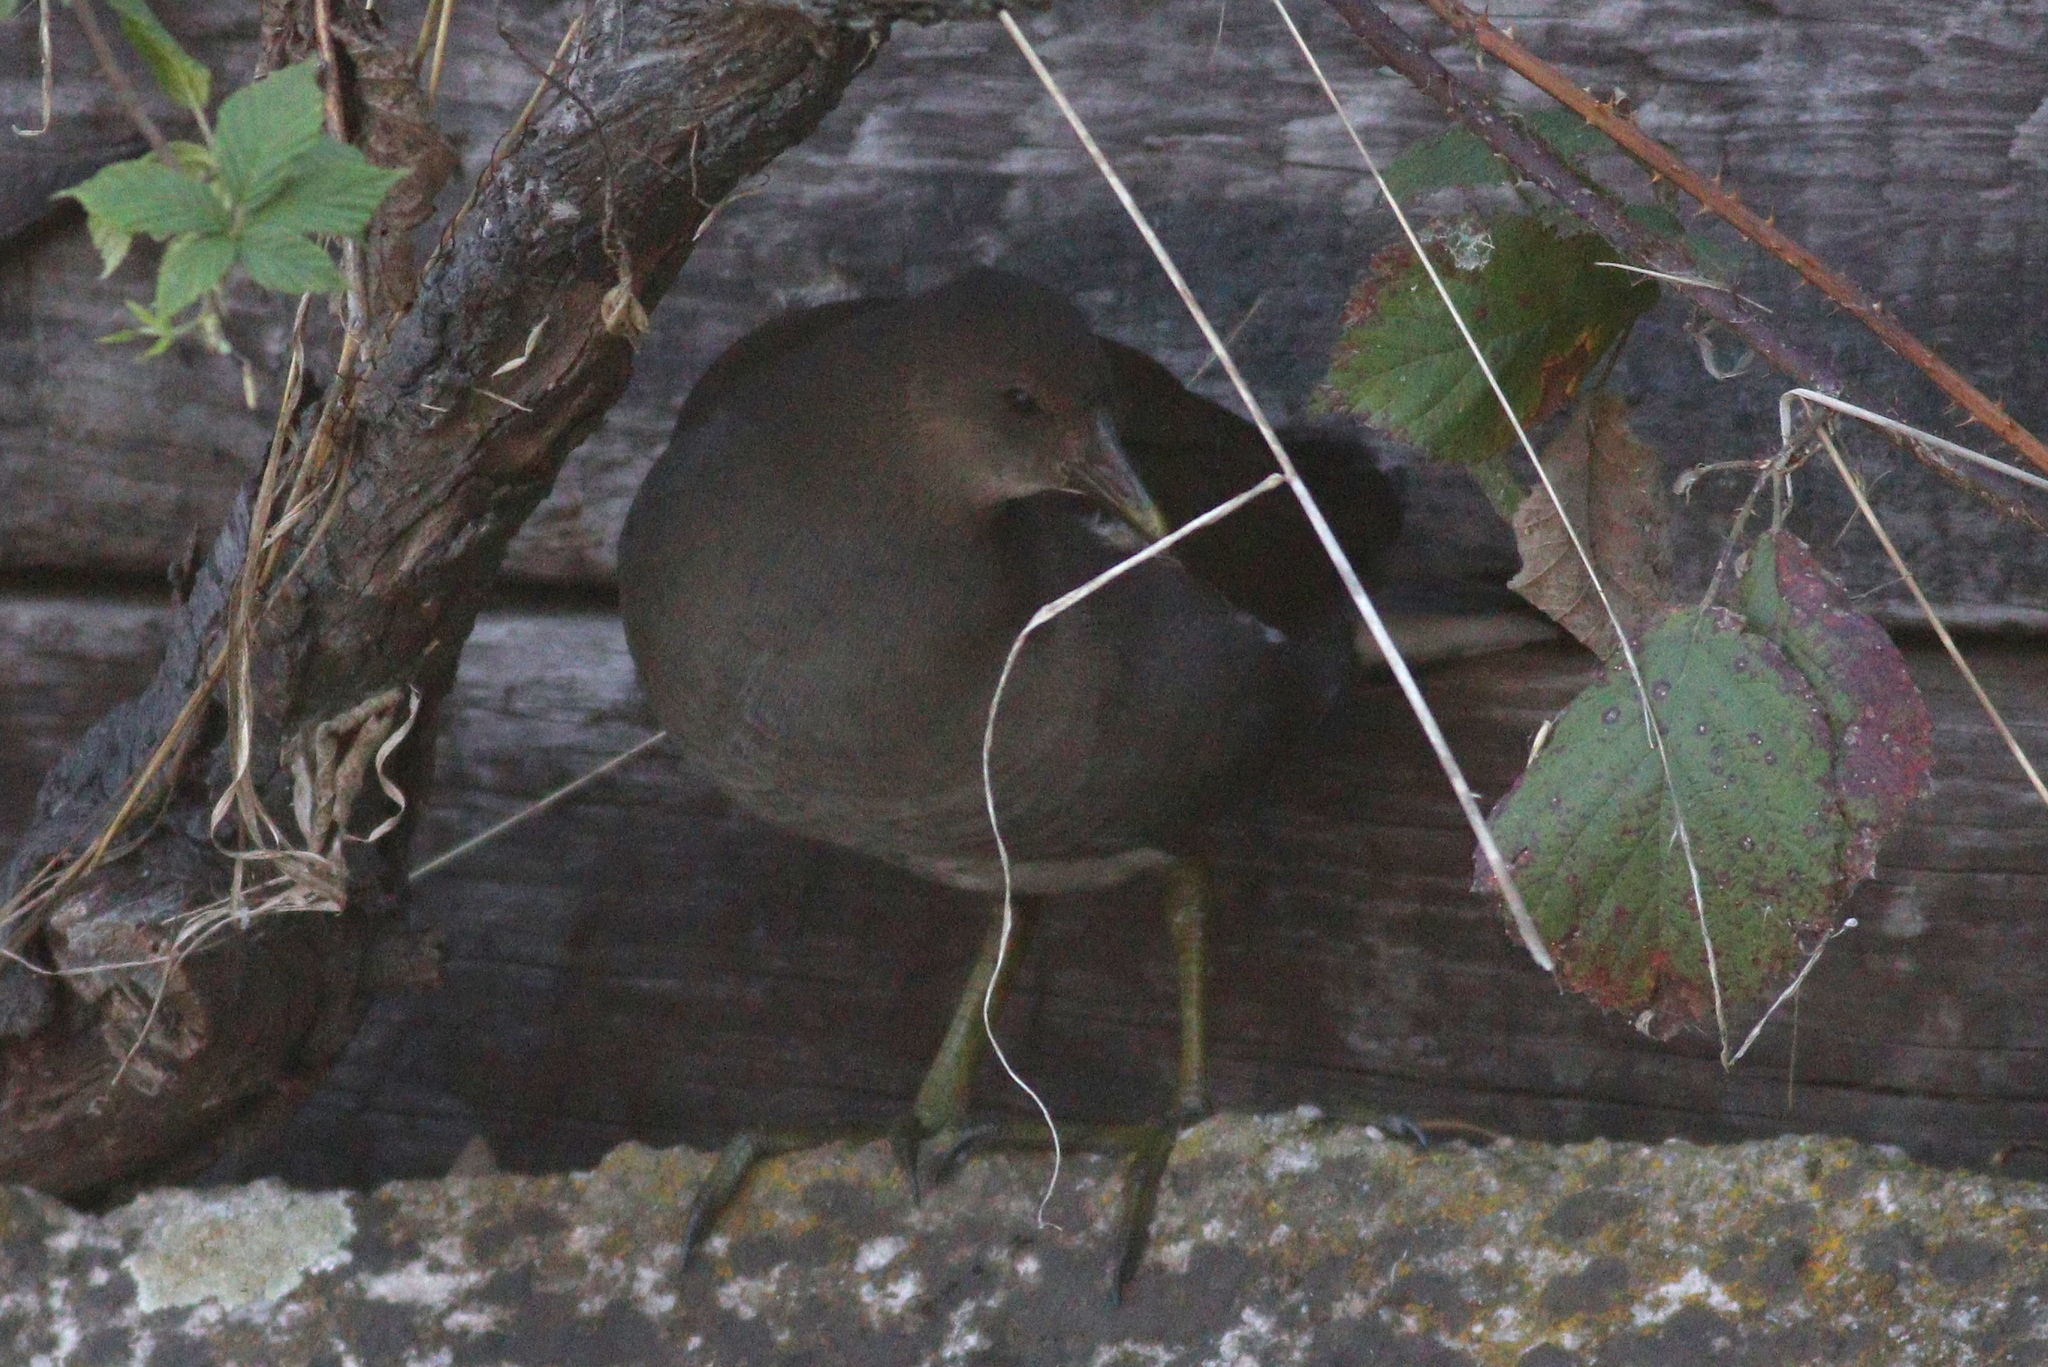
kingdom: Animalia
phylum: Chordata
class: Aves
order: Gruiformes
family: Rallidae
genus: Gallinula
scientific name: Gallinula chloropus
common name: Common moorhen
